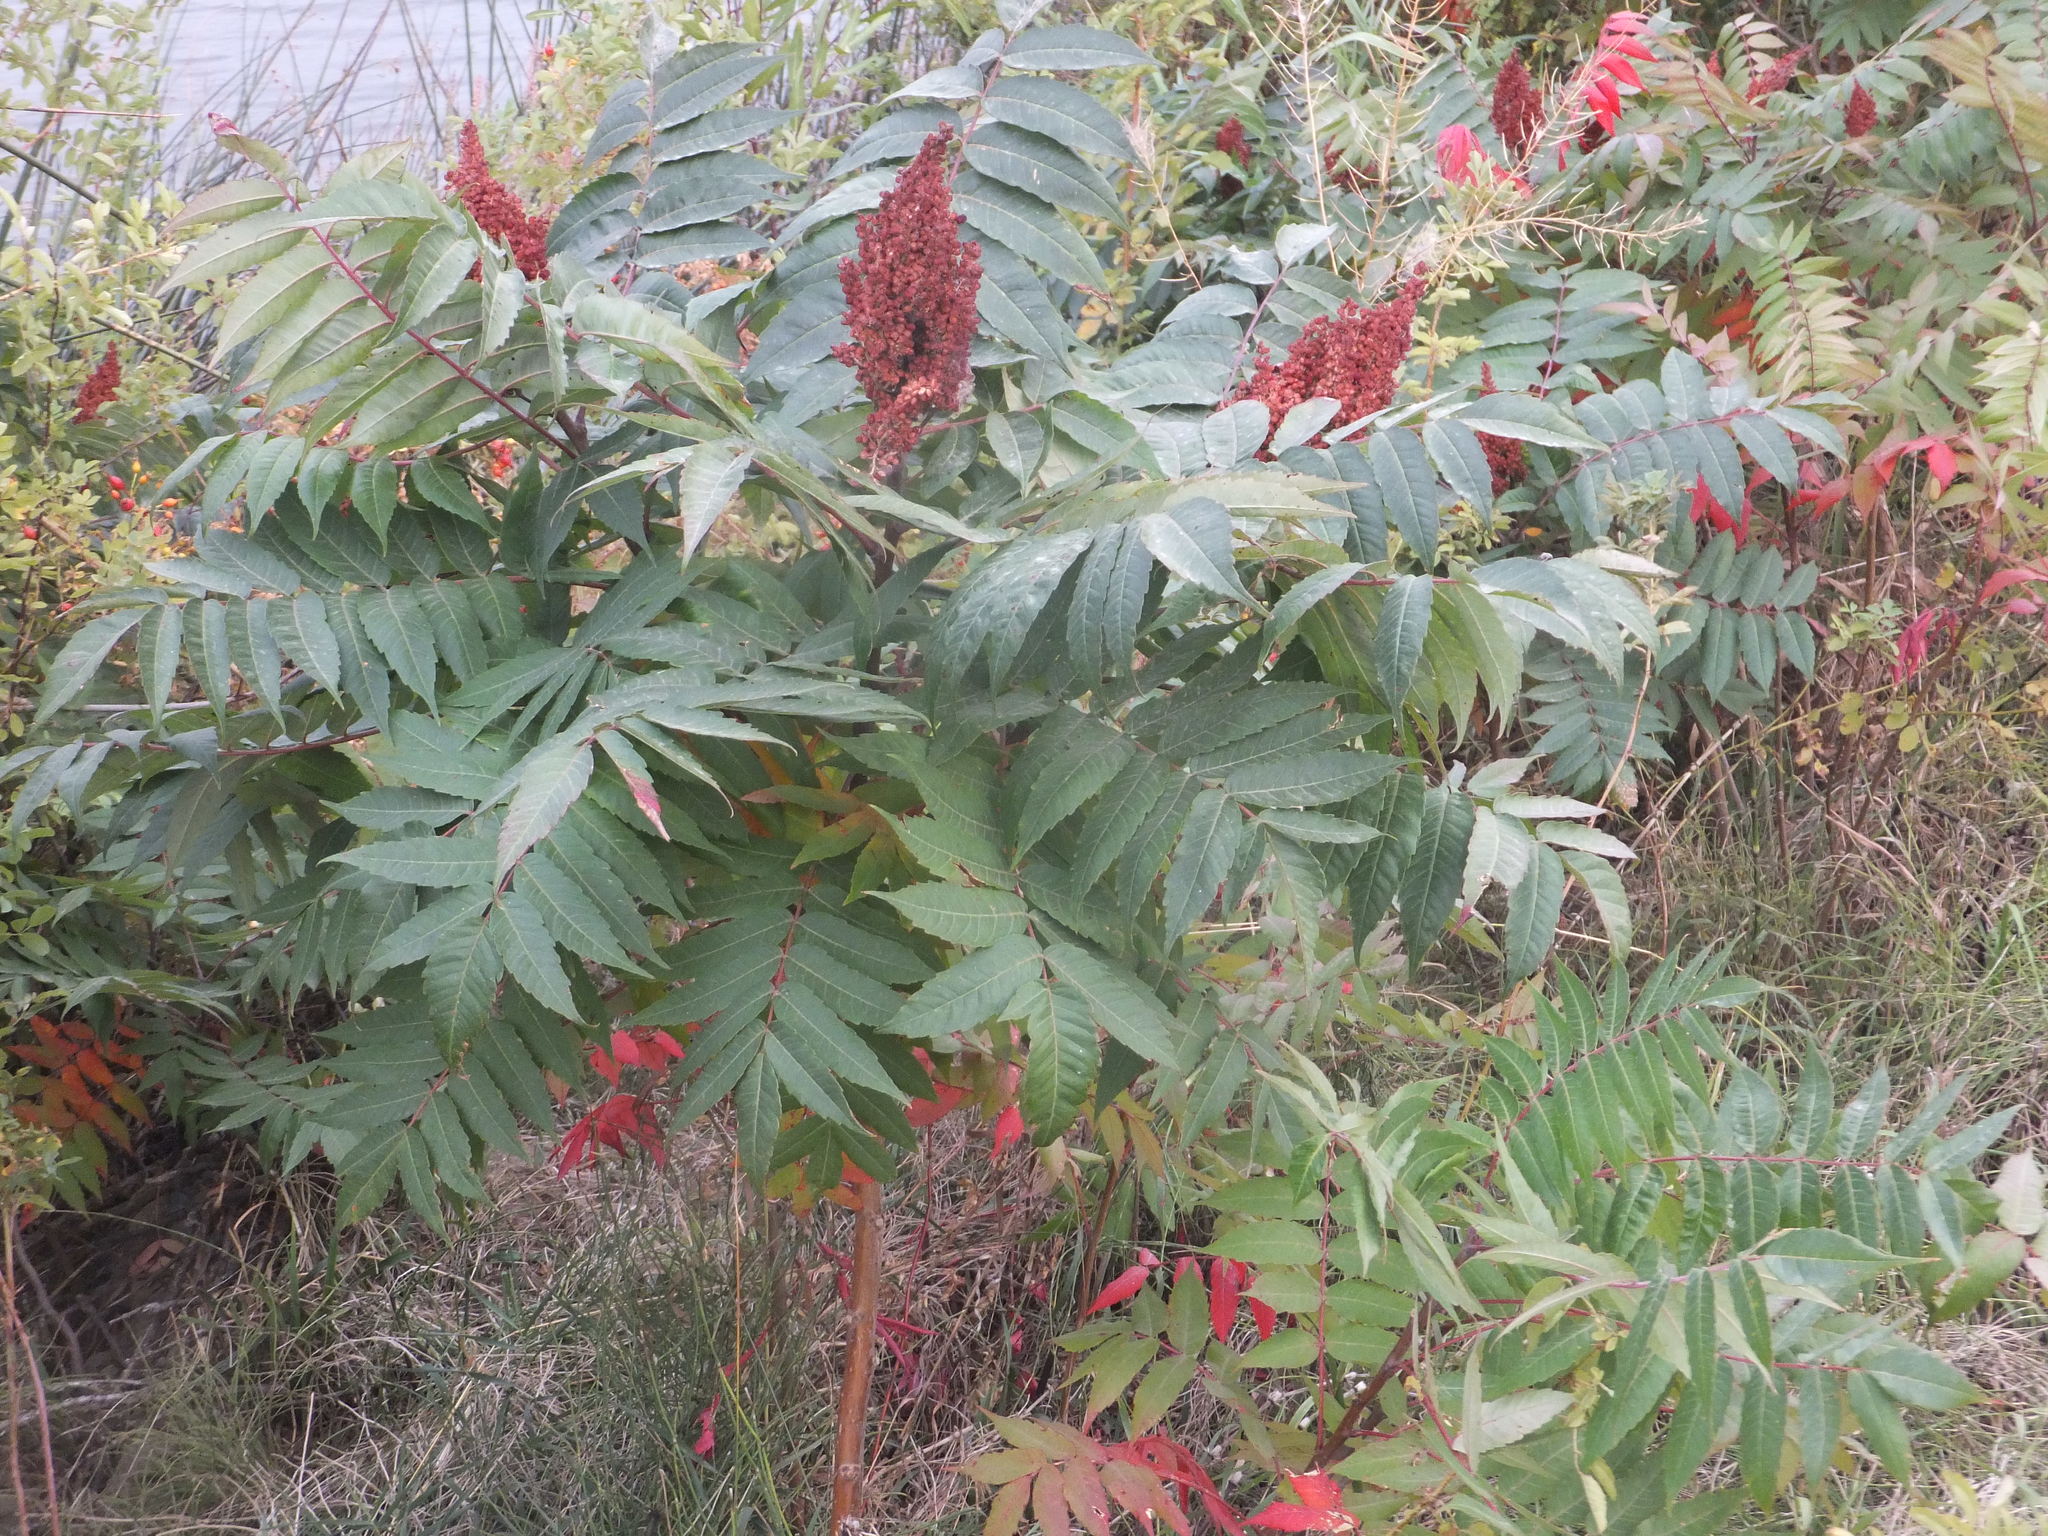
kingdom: Plantae
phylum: Tracheophyta
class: Magnoliopsida
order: Sapindales
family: Anacardiaceae
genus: Rhus
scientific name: Rhus glabra
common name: Scarlet sumac
